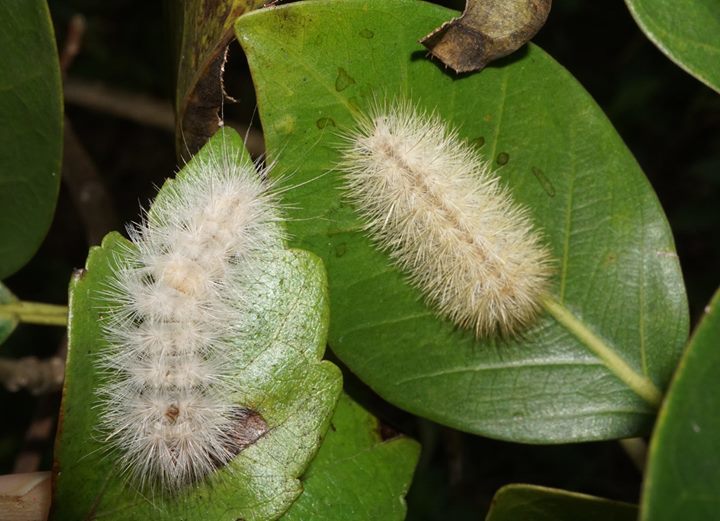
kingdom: Animalia
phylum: Arthropoda
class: Insecta
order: Lepidoptera
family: Erebidae
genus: Lymire
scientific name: Lymire edwardsii
